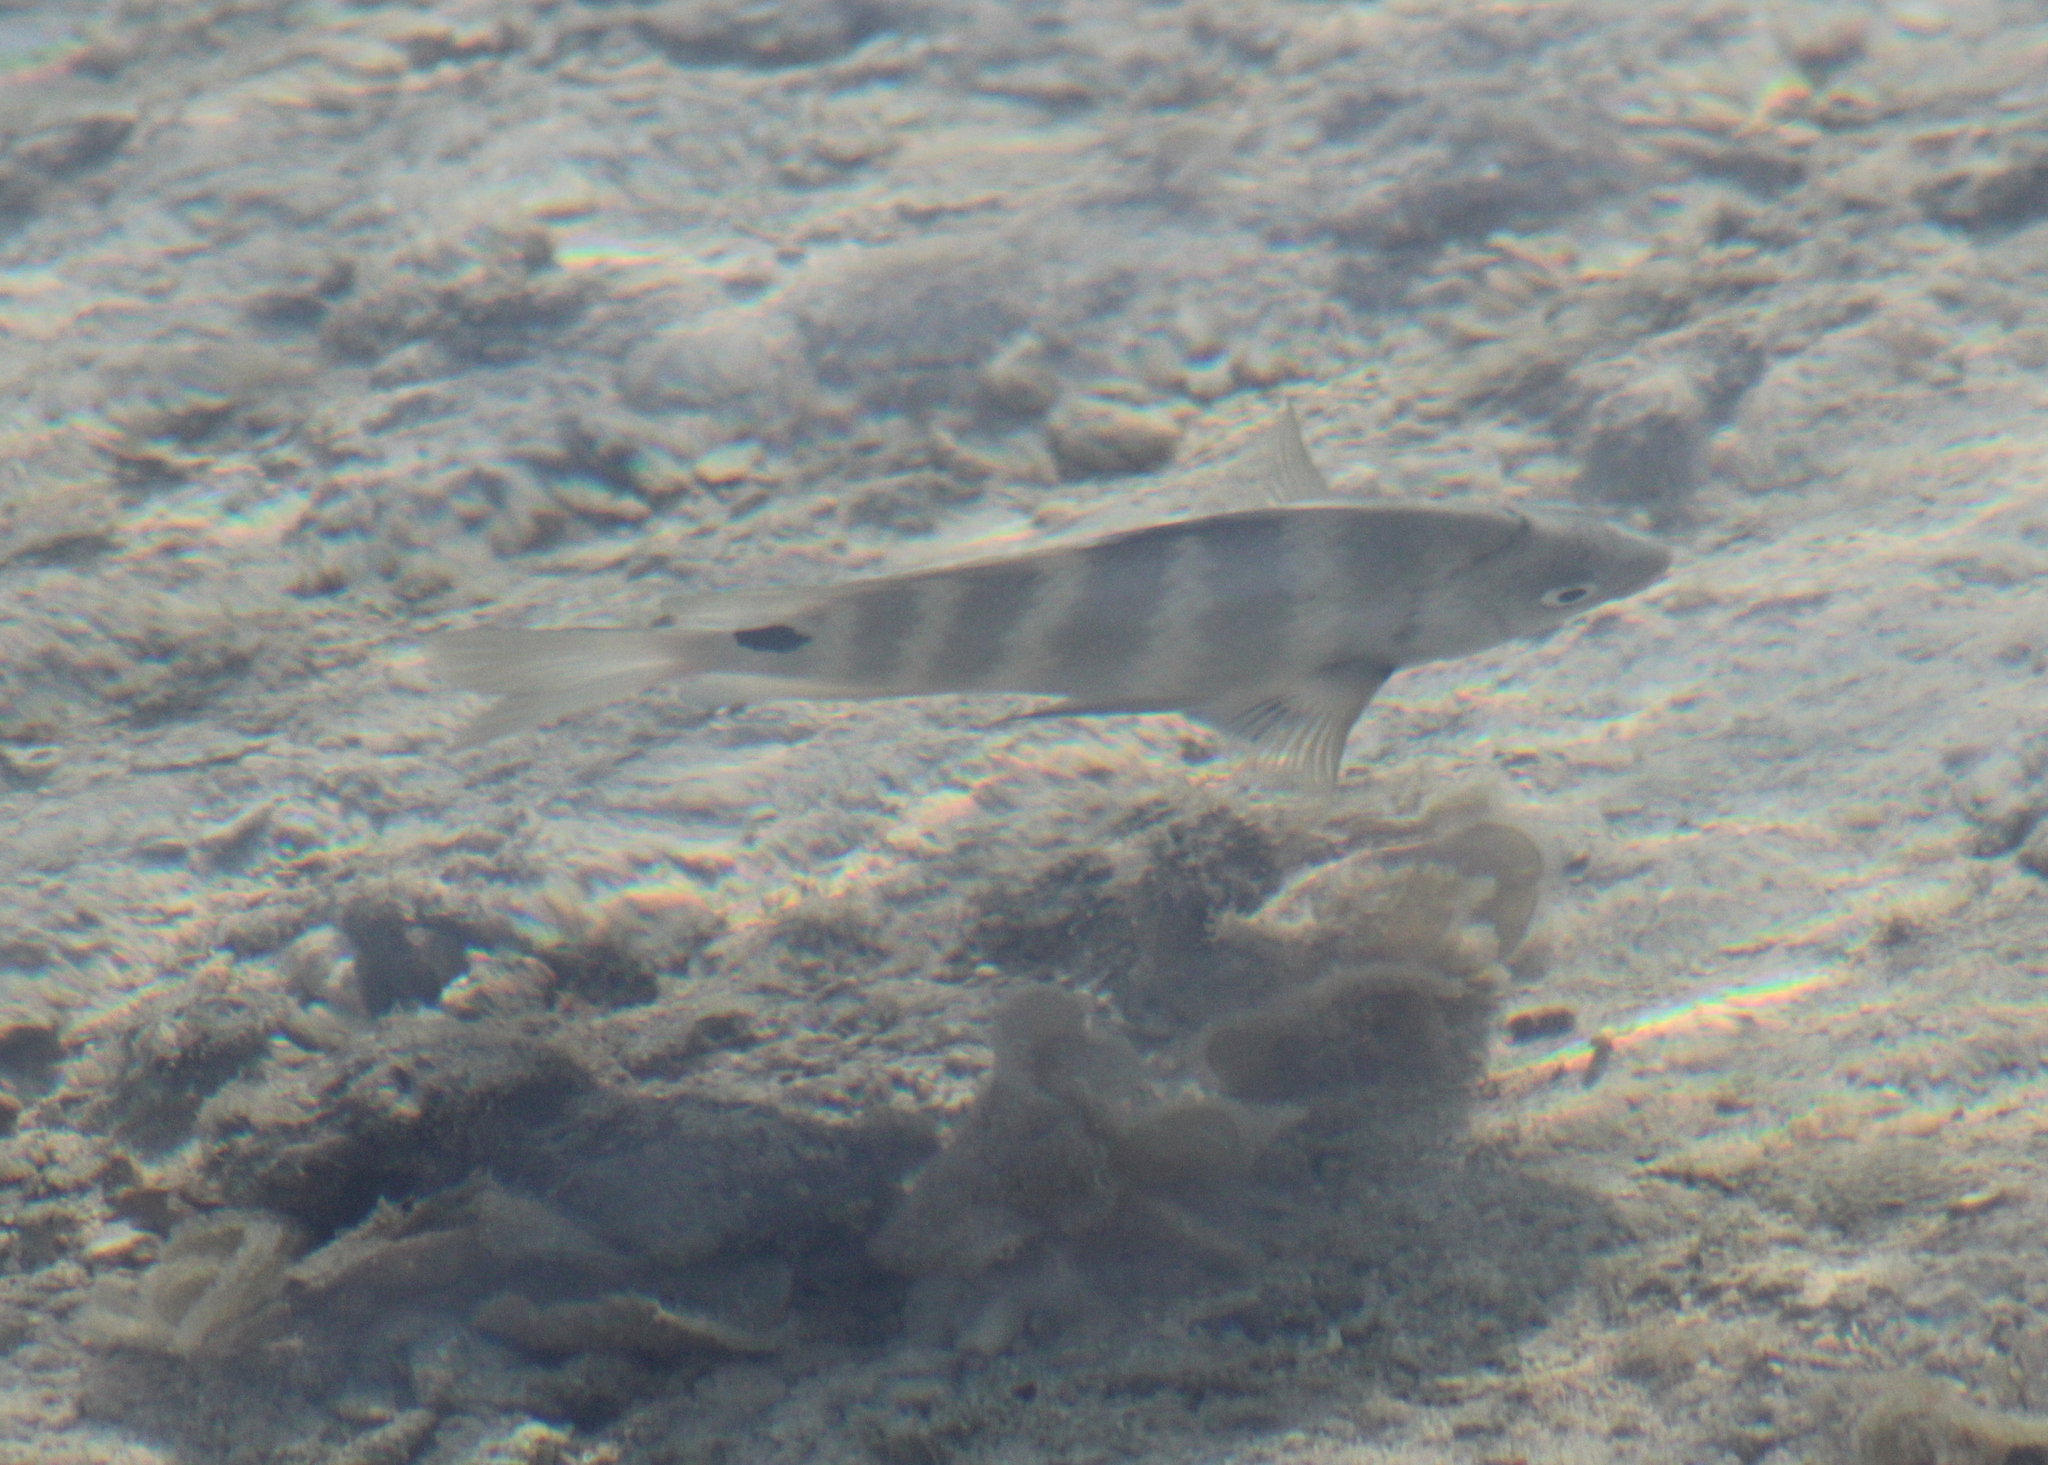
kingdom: Animalia
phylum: Chordata
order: Perciformes
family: Pomacentridae
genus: Abudefduf
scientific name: Abudefduf sordidus
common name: Blackspot sergeant
